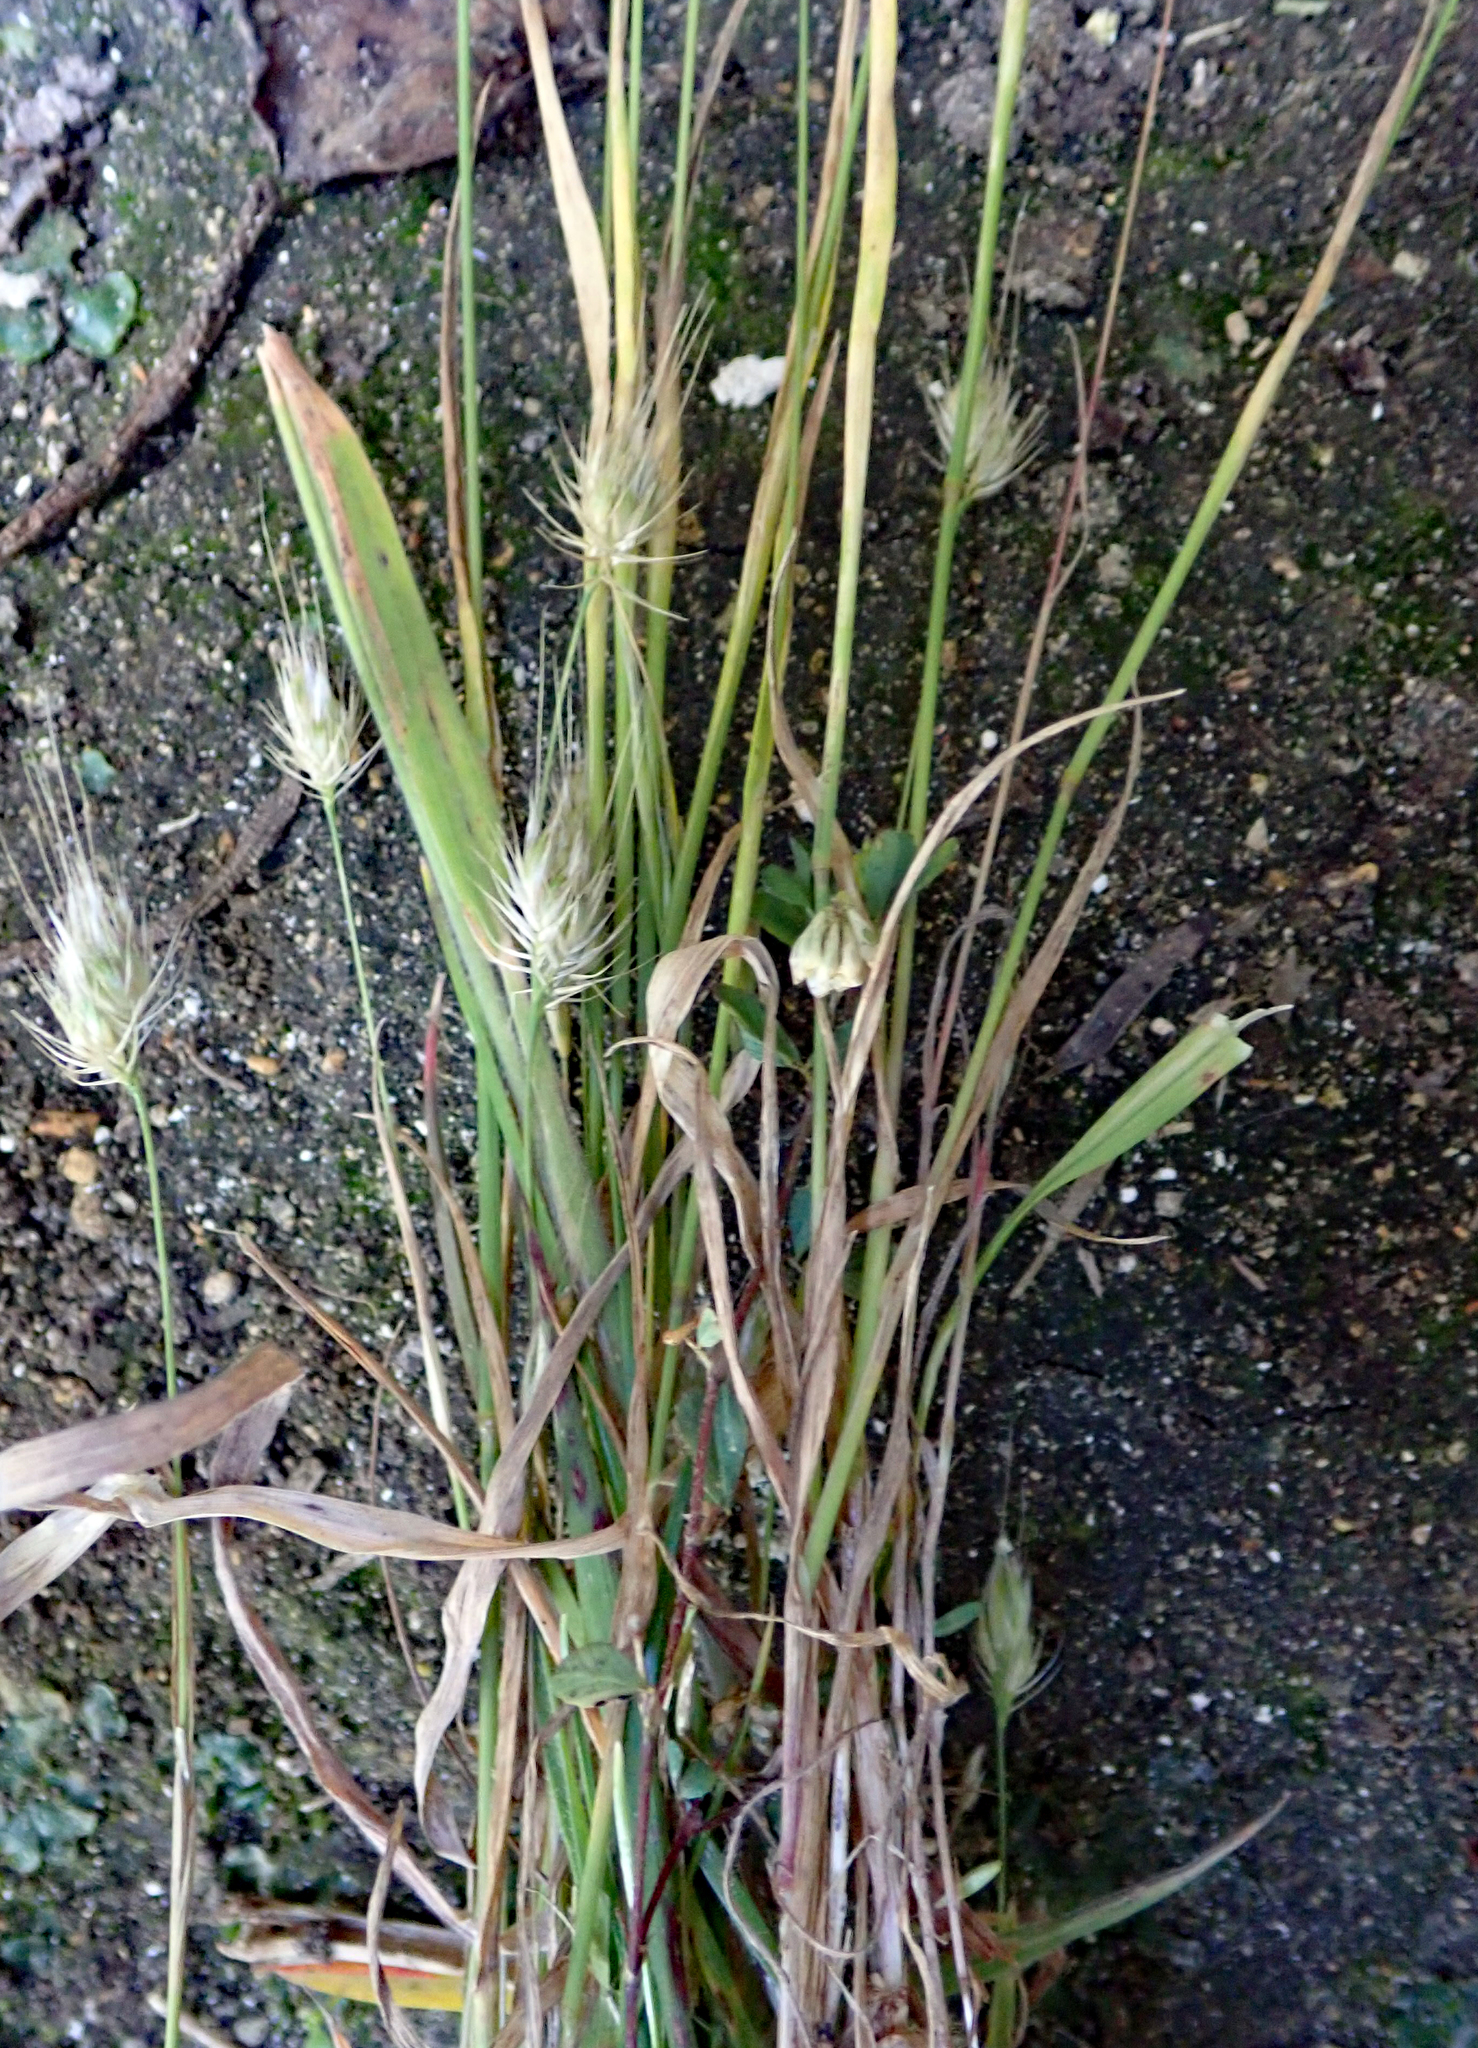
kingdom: Plantae
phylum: Tracheophyta
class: Liliopsida
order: Poales
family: Poaceae
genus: Cynosurus
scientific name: Cynosurus echinatus
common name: Rough dog's-tail
